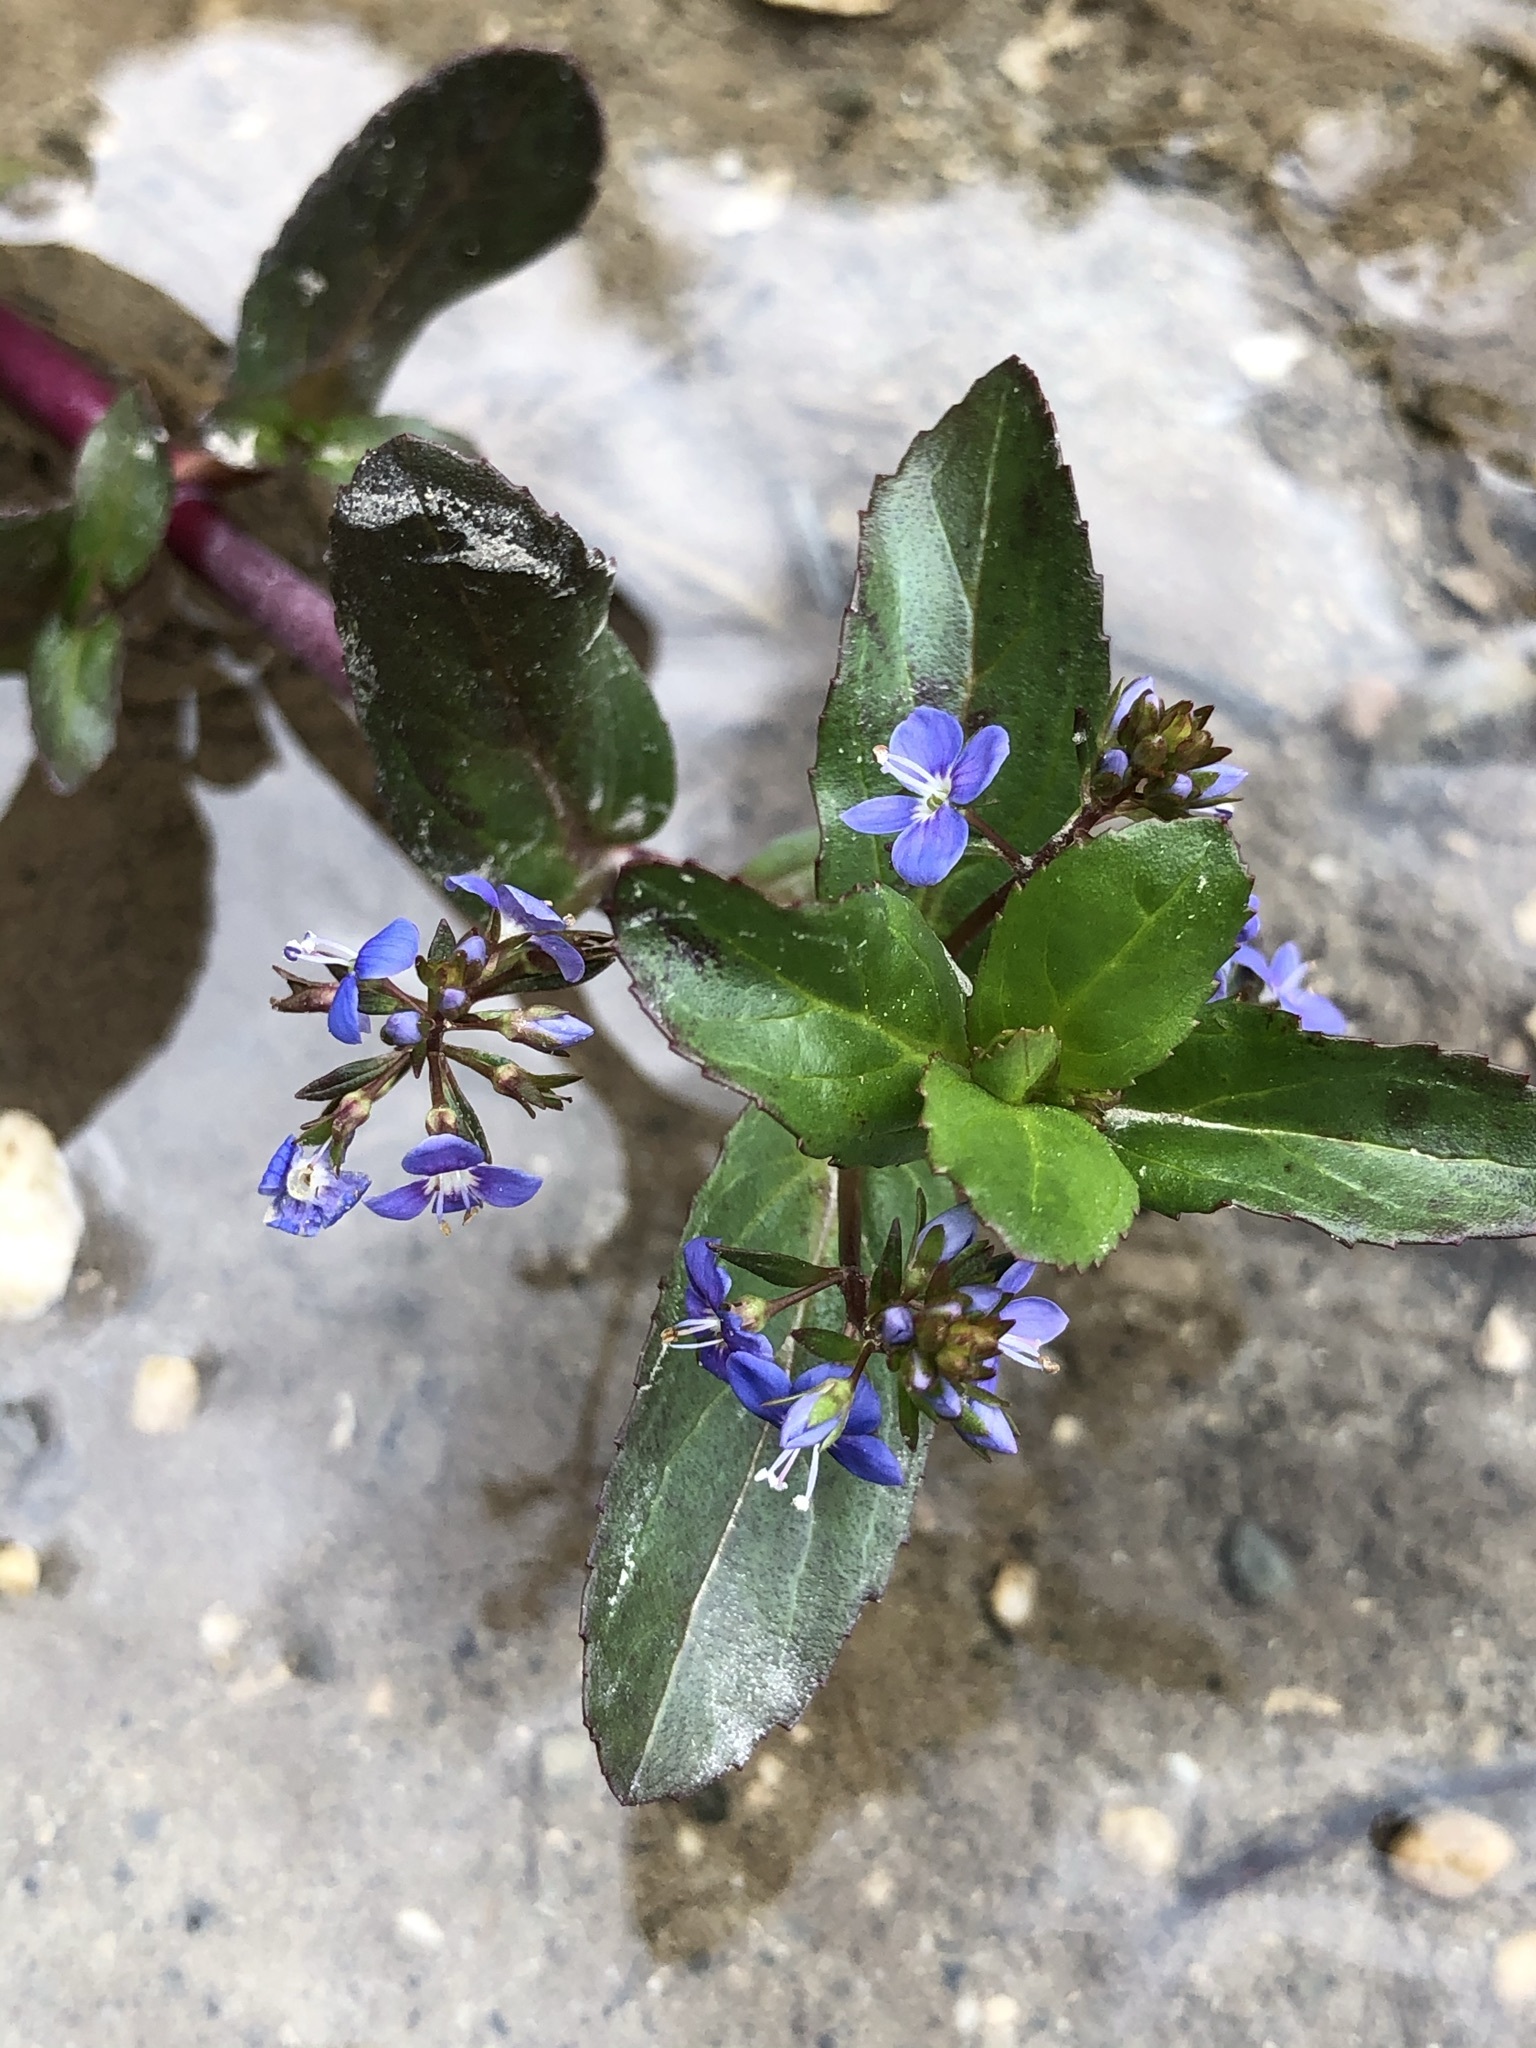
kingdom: Plantae
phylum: Tracheophyta
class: Magnoliopsida
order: Lamiales
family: Plantaginaceae
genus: Veronica
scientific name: Veronica beccabunga
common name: Brooklime
